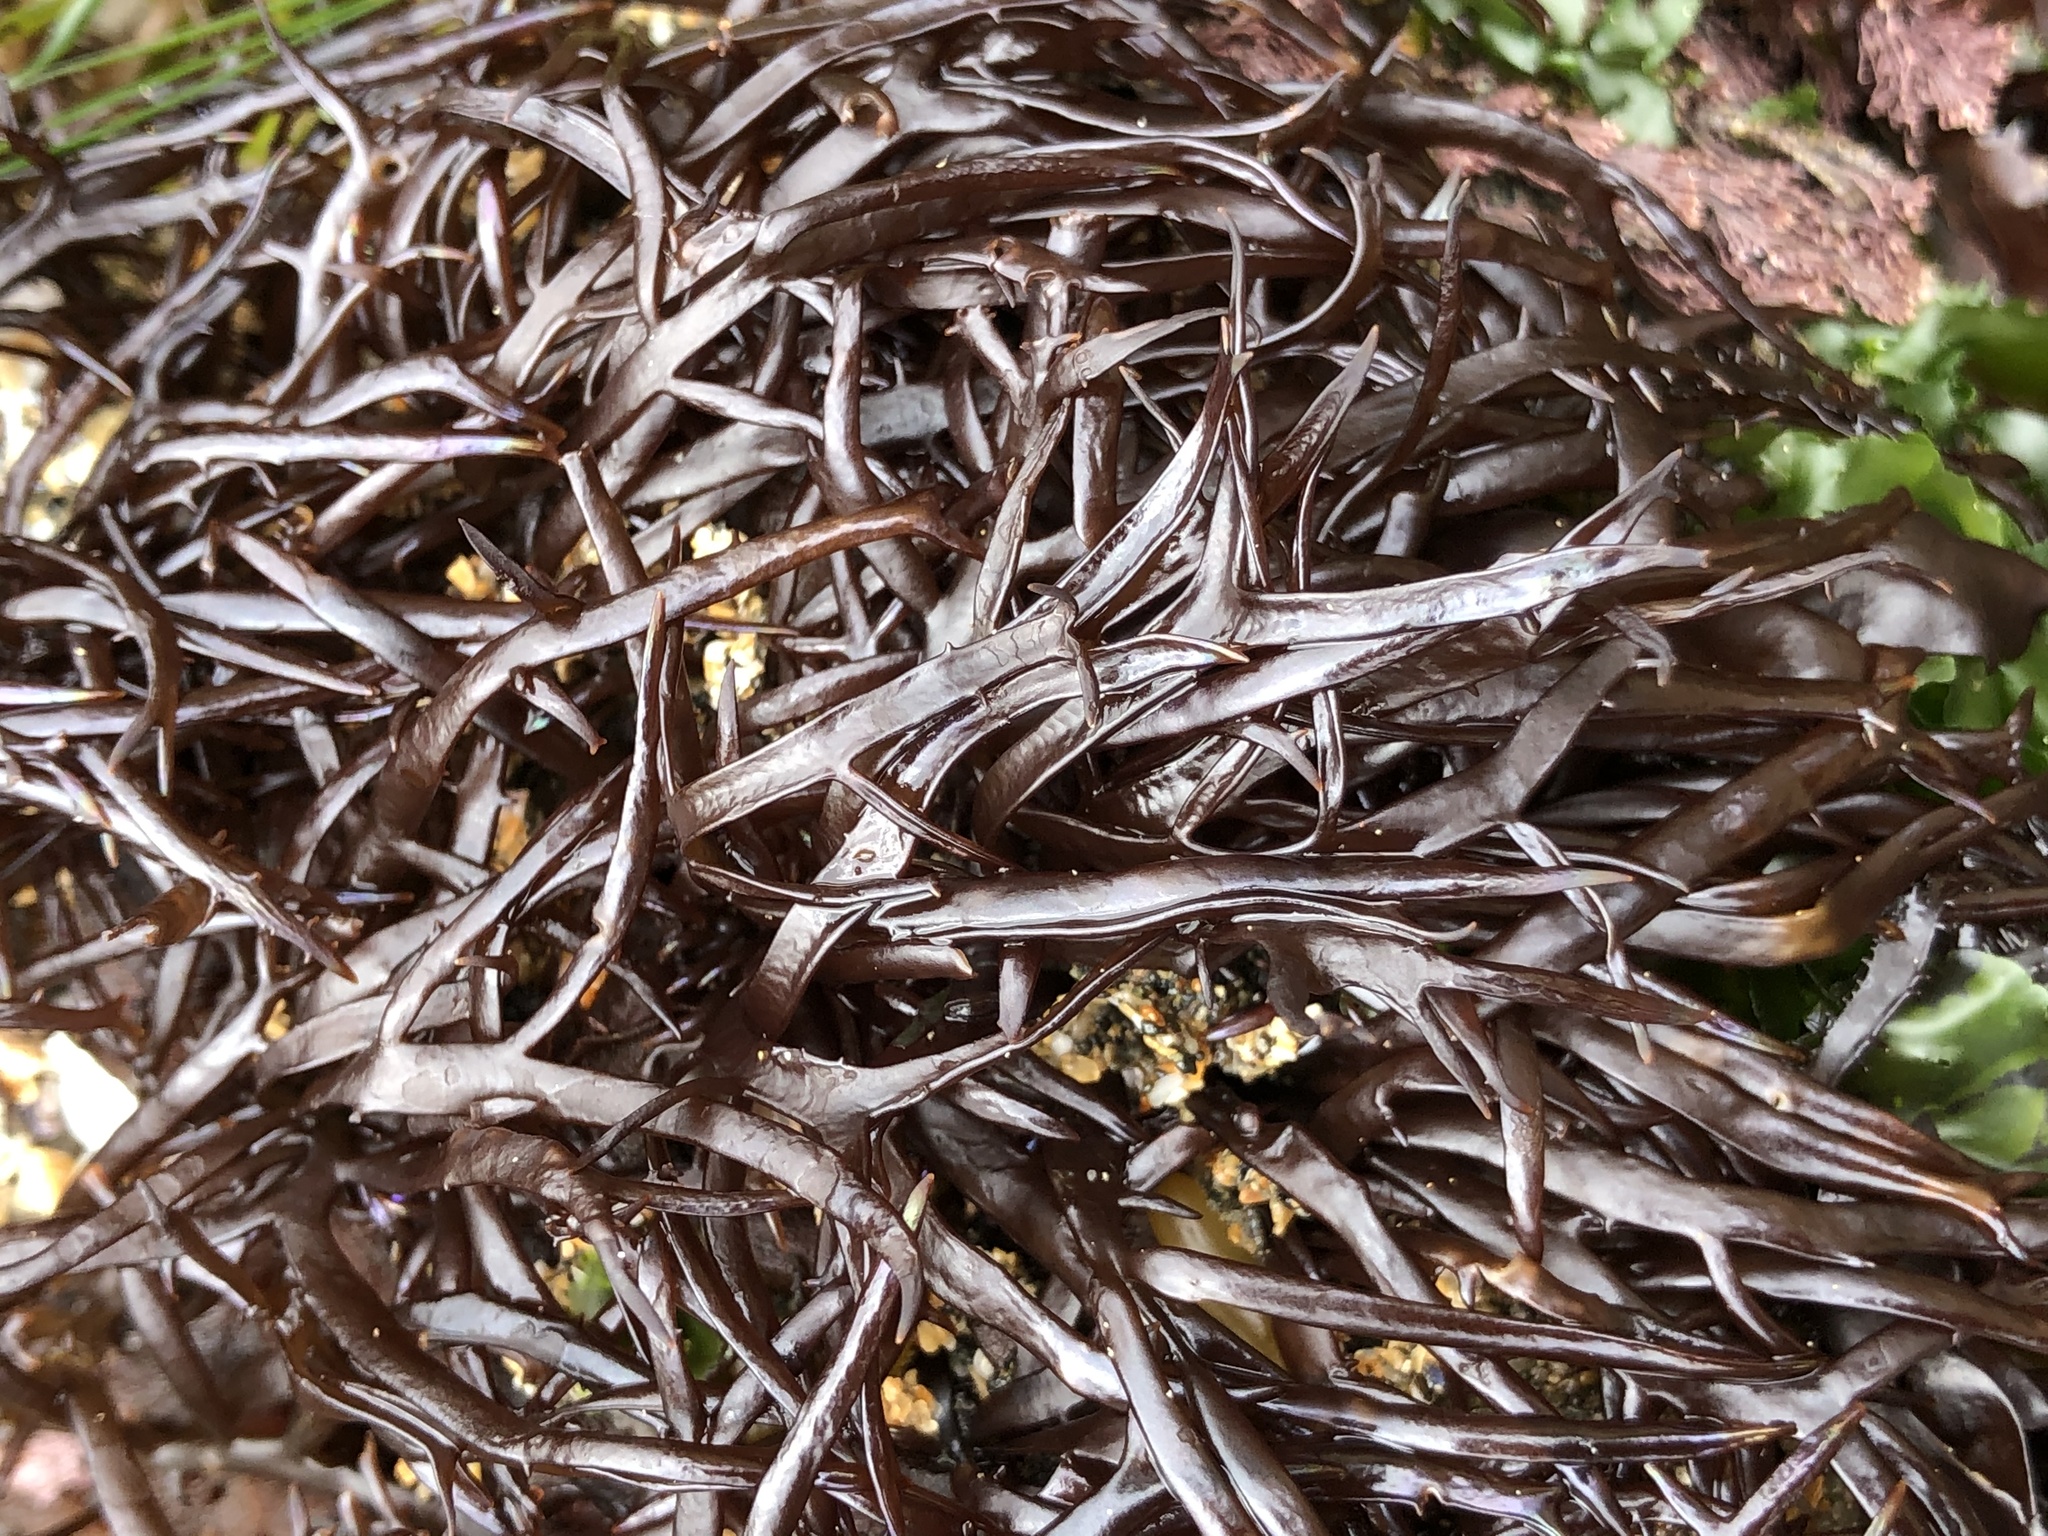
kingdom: Plantae
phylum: Rhodophyta
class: Florideophyceae
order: Gigartinales
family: Gigartinaceae
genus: Chondracanthus
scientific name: Chondracanthus canaliculatus
